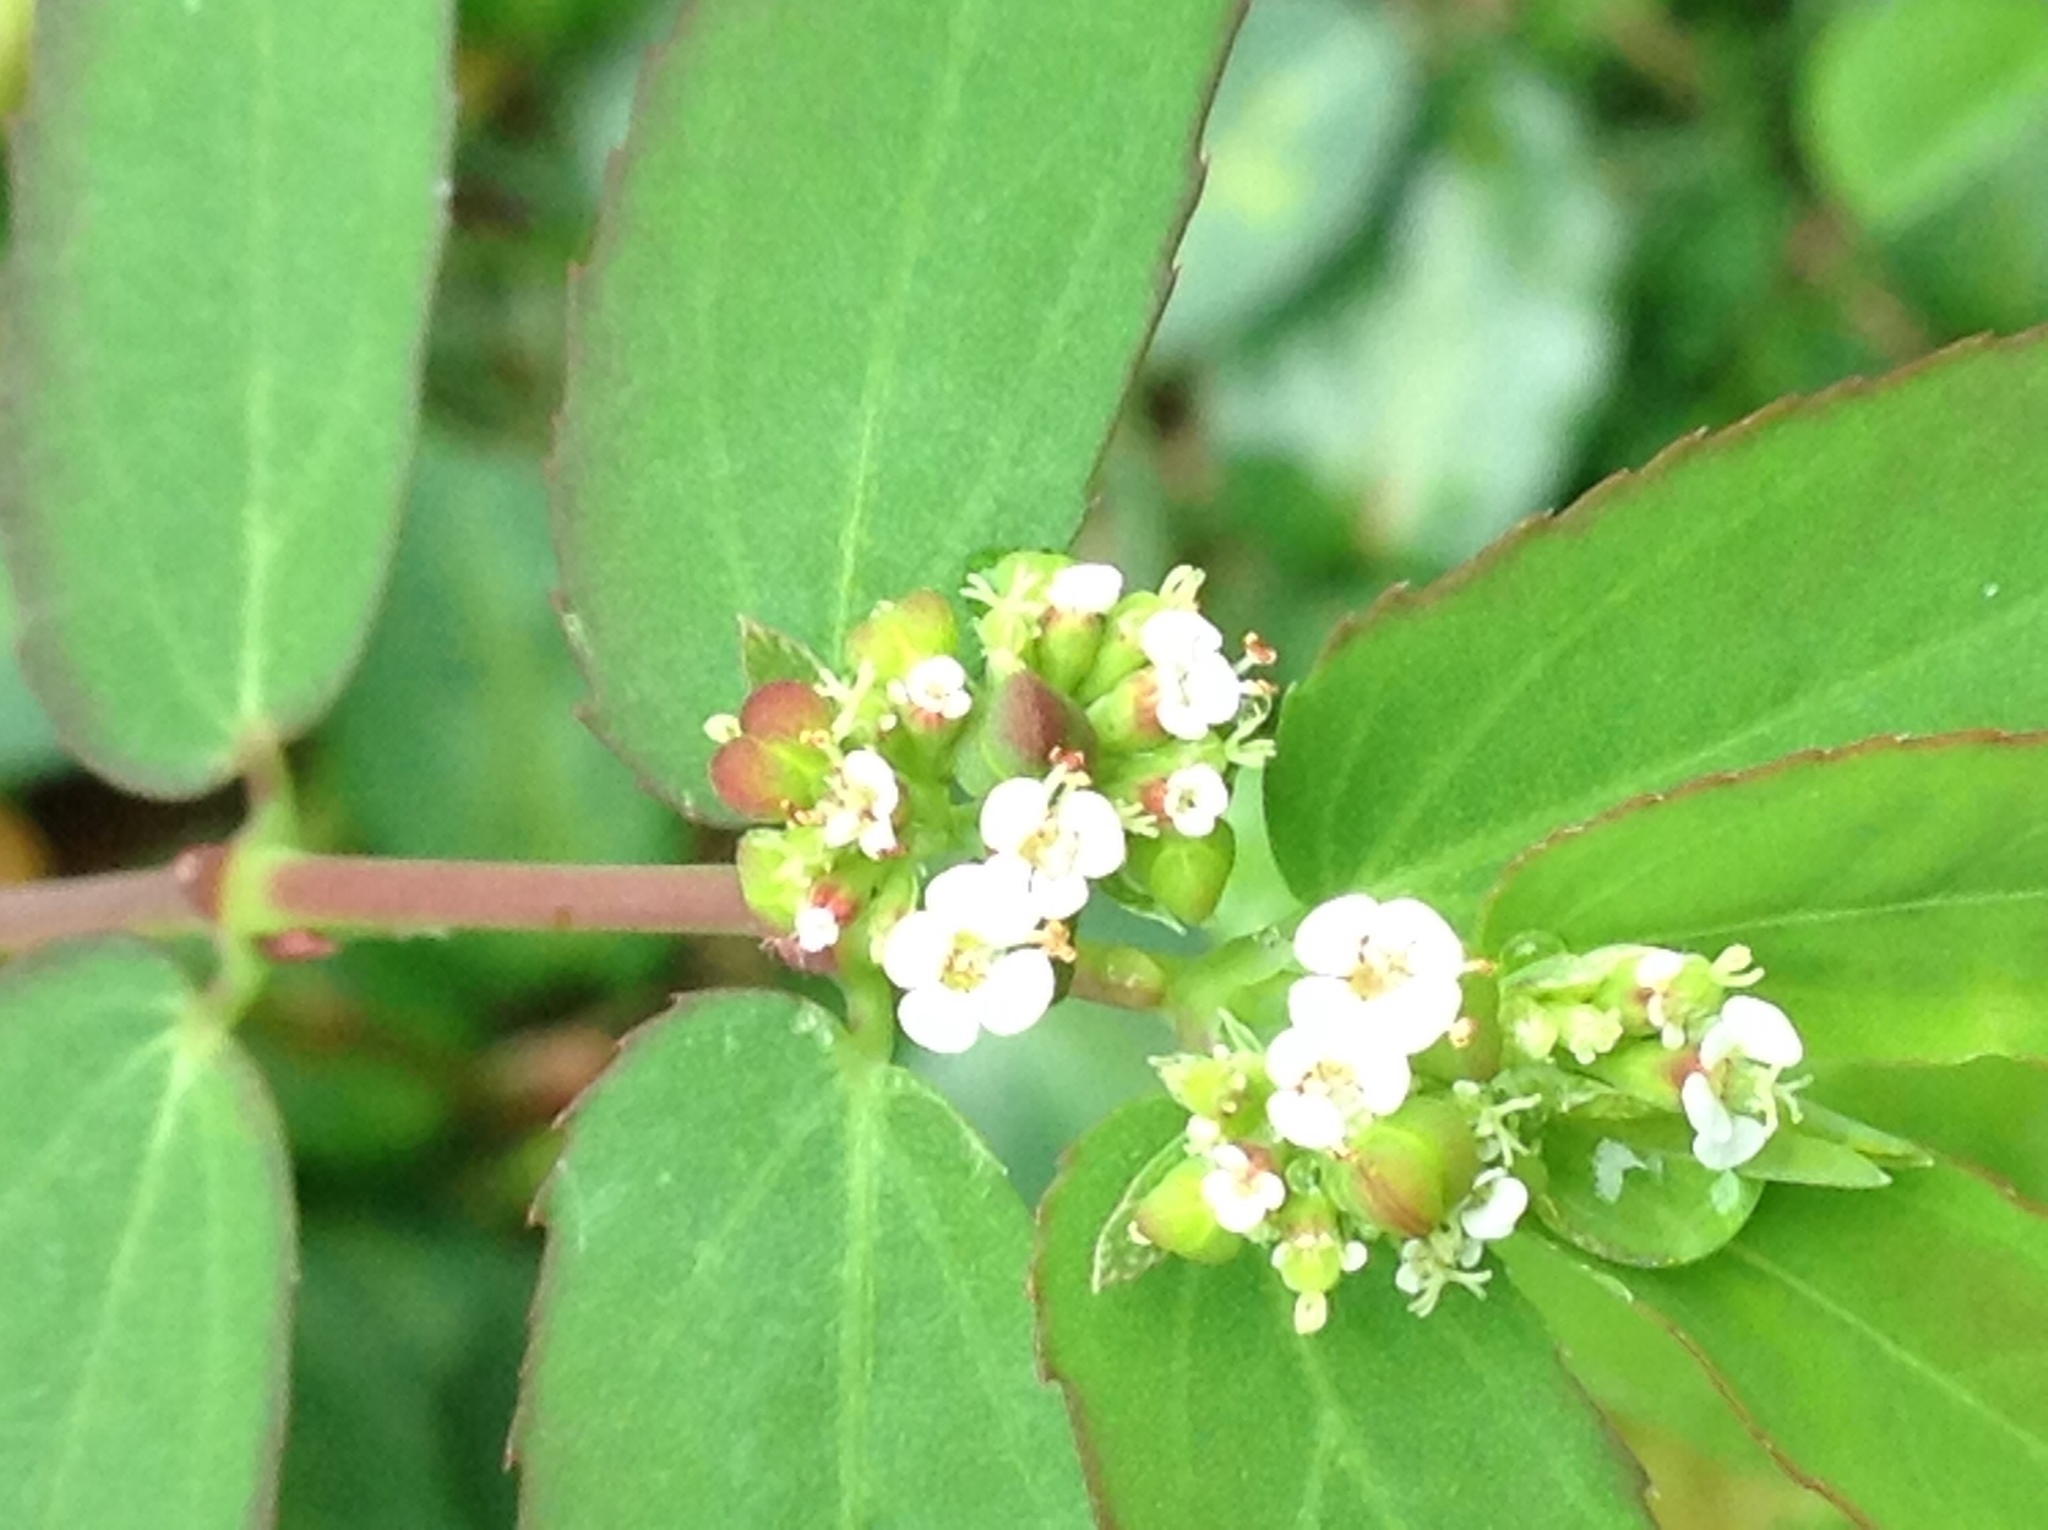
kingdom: Plantae
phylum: Tracheophyta
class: Magnoliopsida
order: Malpighiales
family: Euphorbiaceae
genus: Euphorbia
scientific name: Euphorbia hypericifolia
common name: Graceful sandmat
